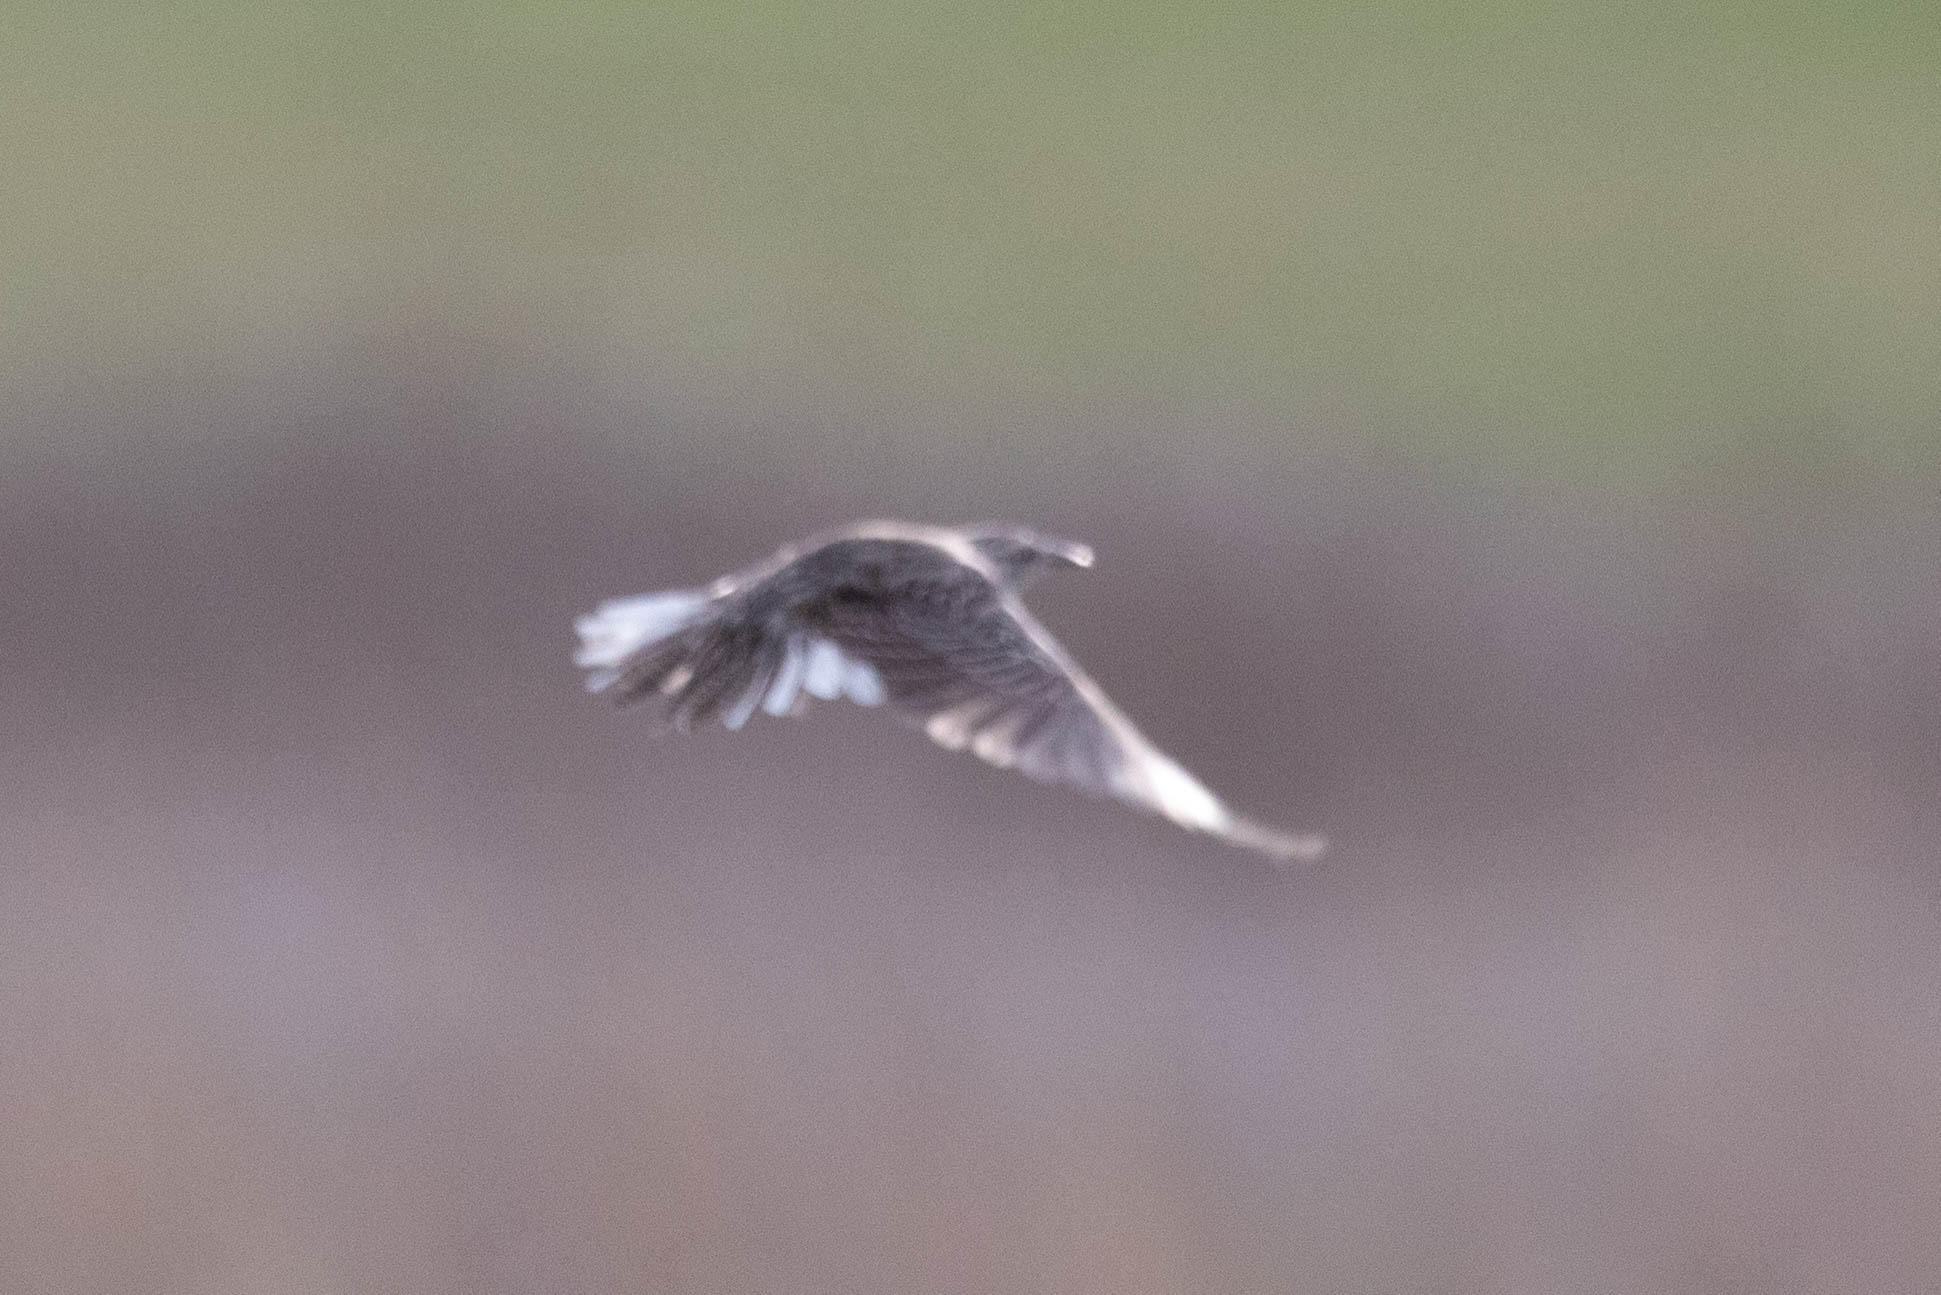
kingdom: Animalia
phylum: Chordata
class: Aves
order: Passeriformes
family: Icteridae
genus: Sturnella
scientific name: Sturnella neglecta
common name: Western meadowlark
